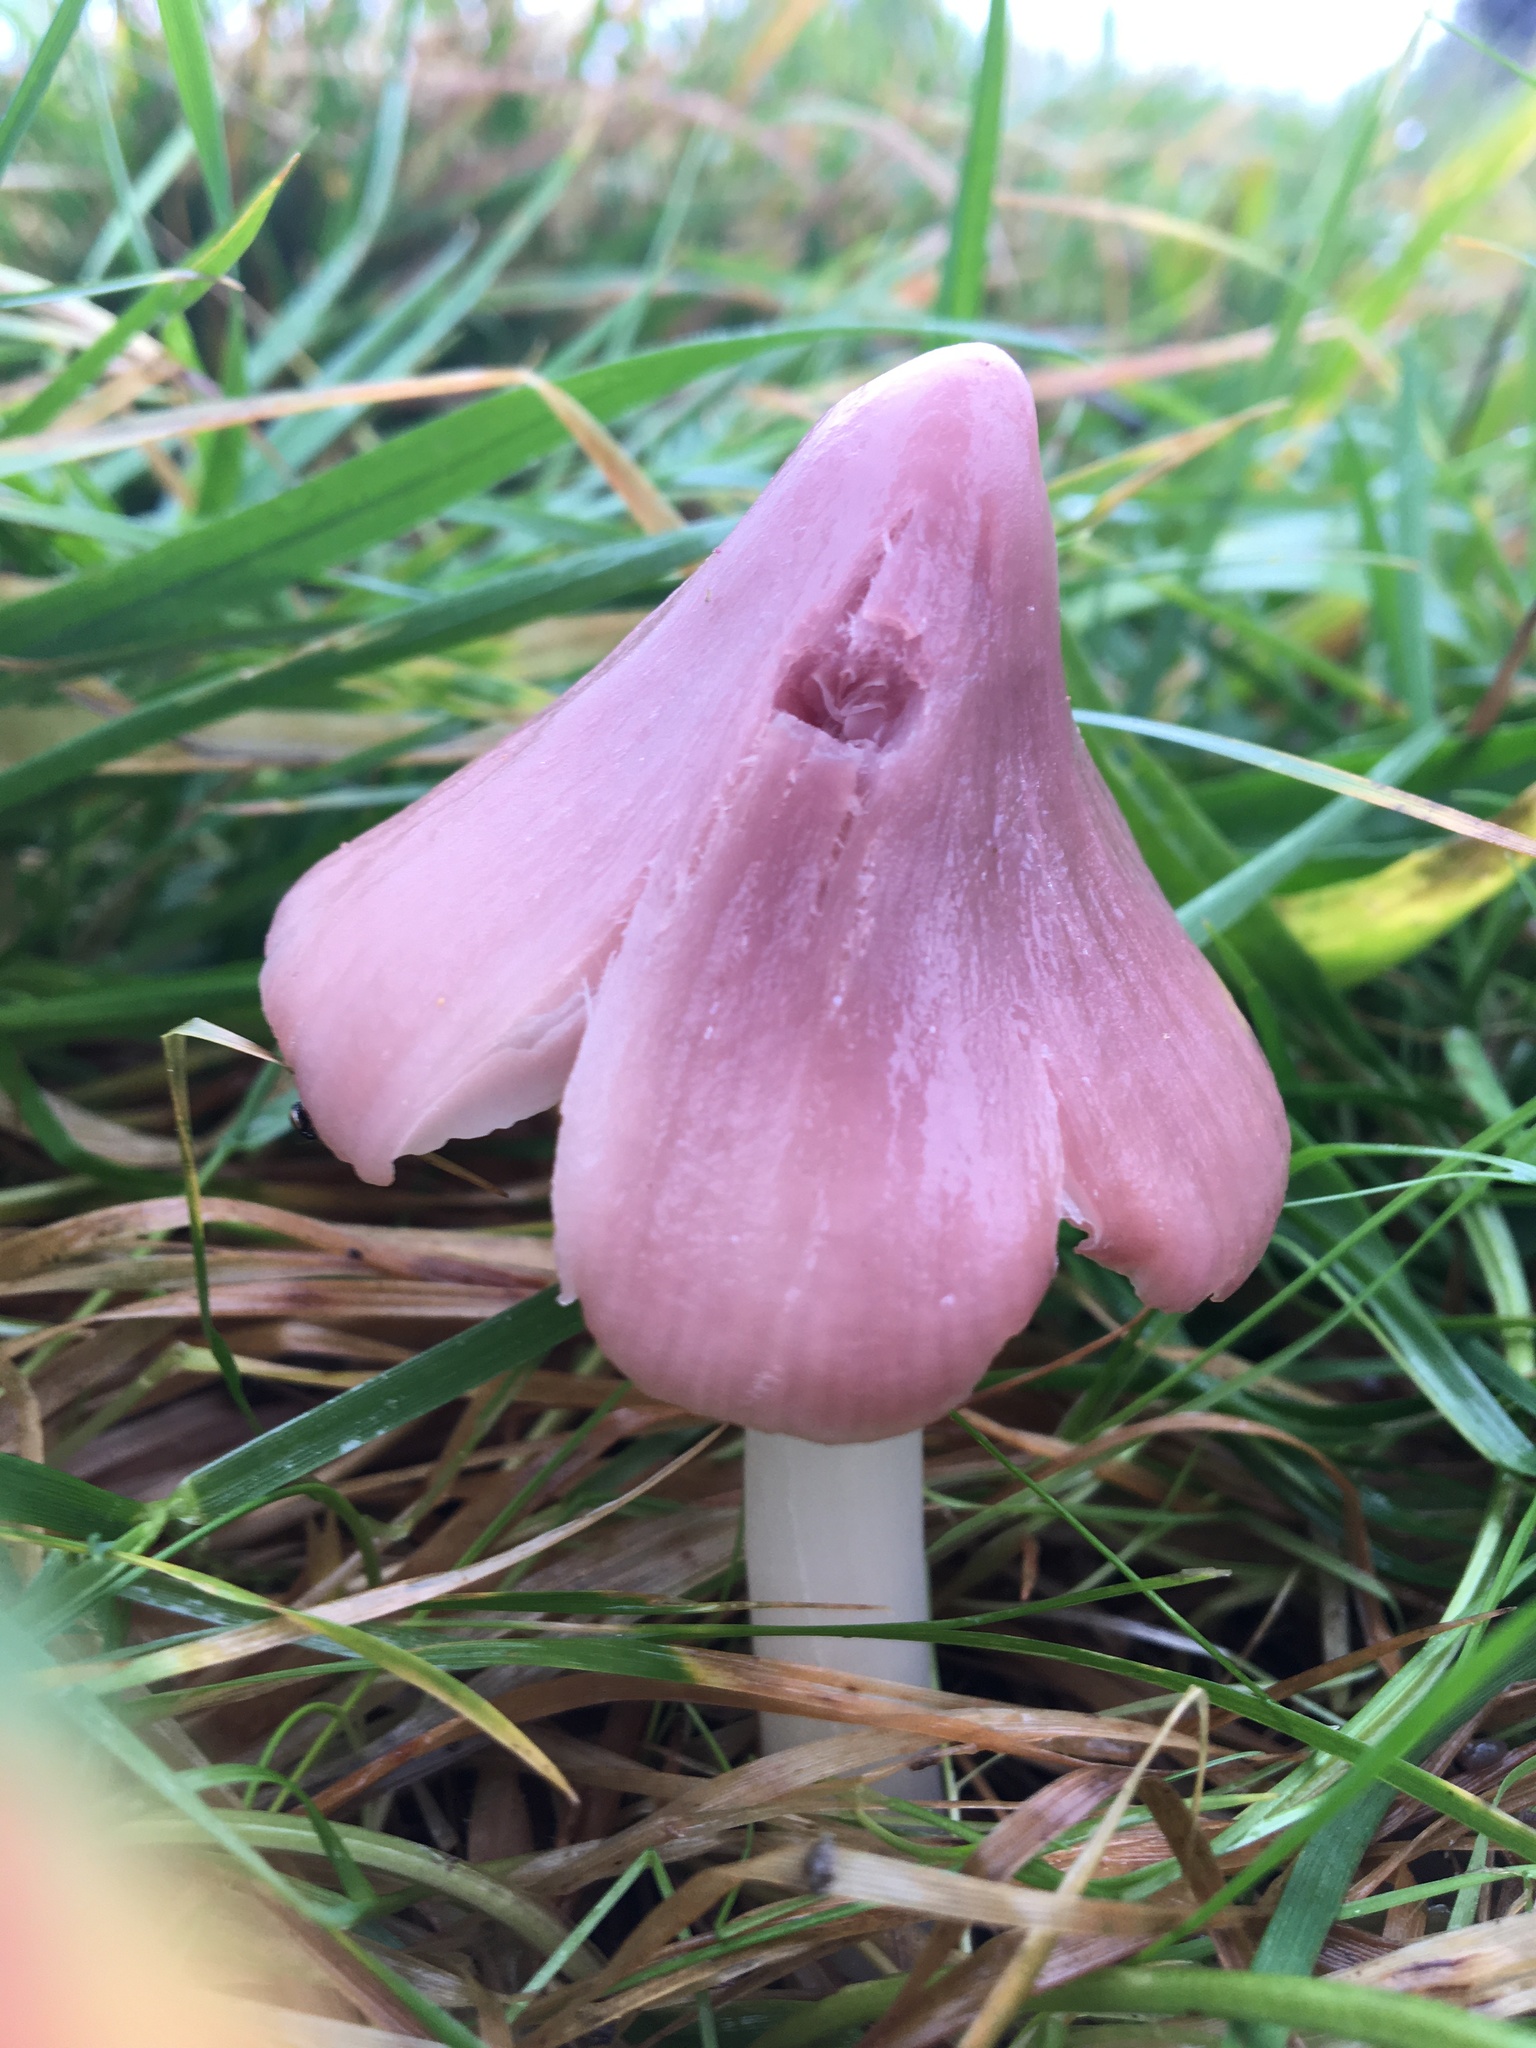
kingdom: Fungi
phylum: Basidiomycota
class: Agaricomycetes
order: Agaricales
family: Hygrophoraceae
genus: Porpolomopsis
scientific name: Porpolomopsis calyptriformis
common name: Pink waxcap
